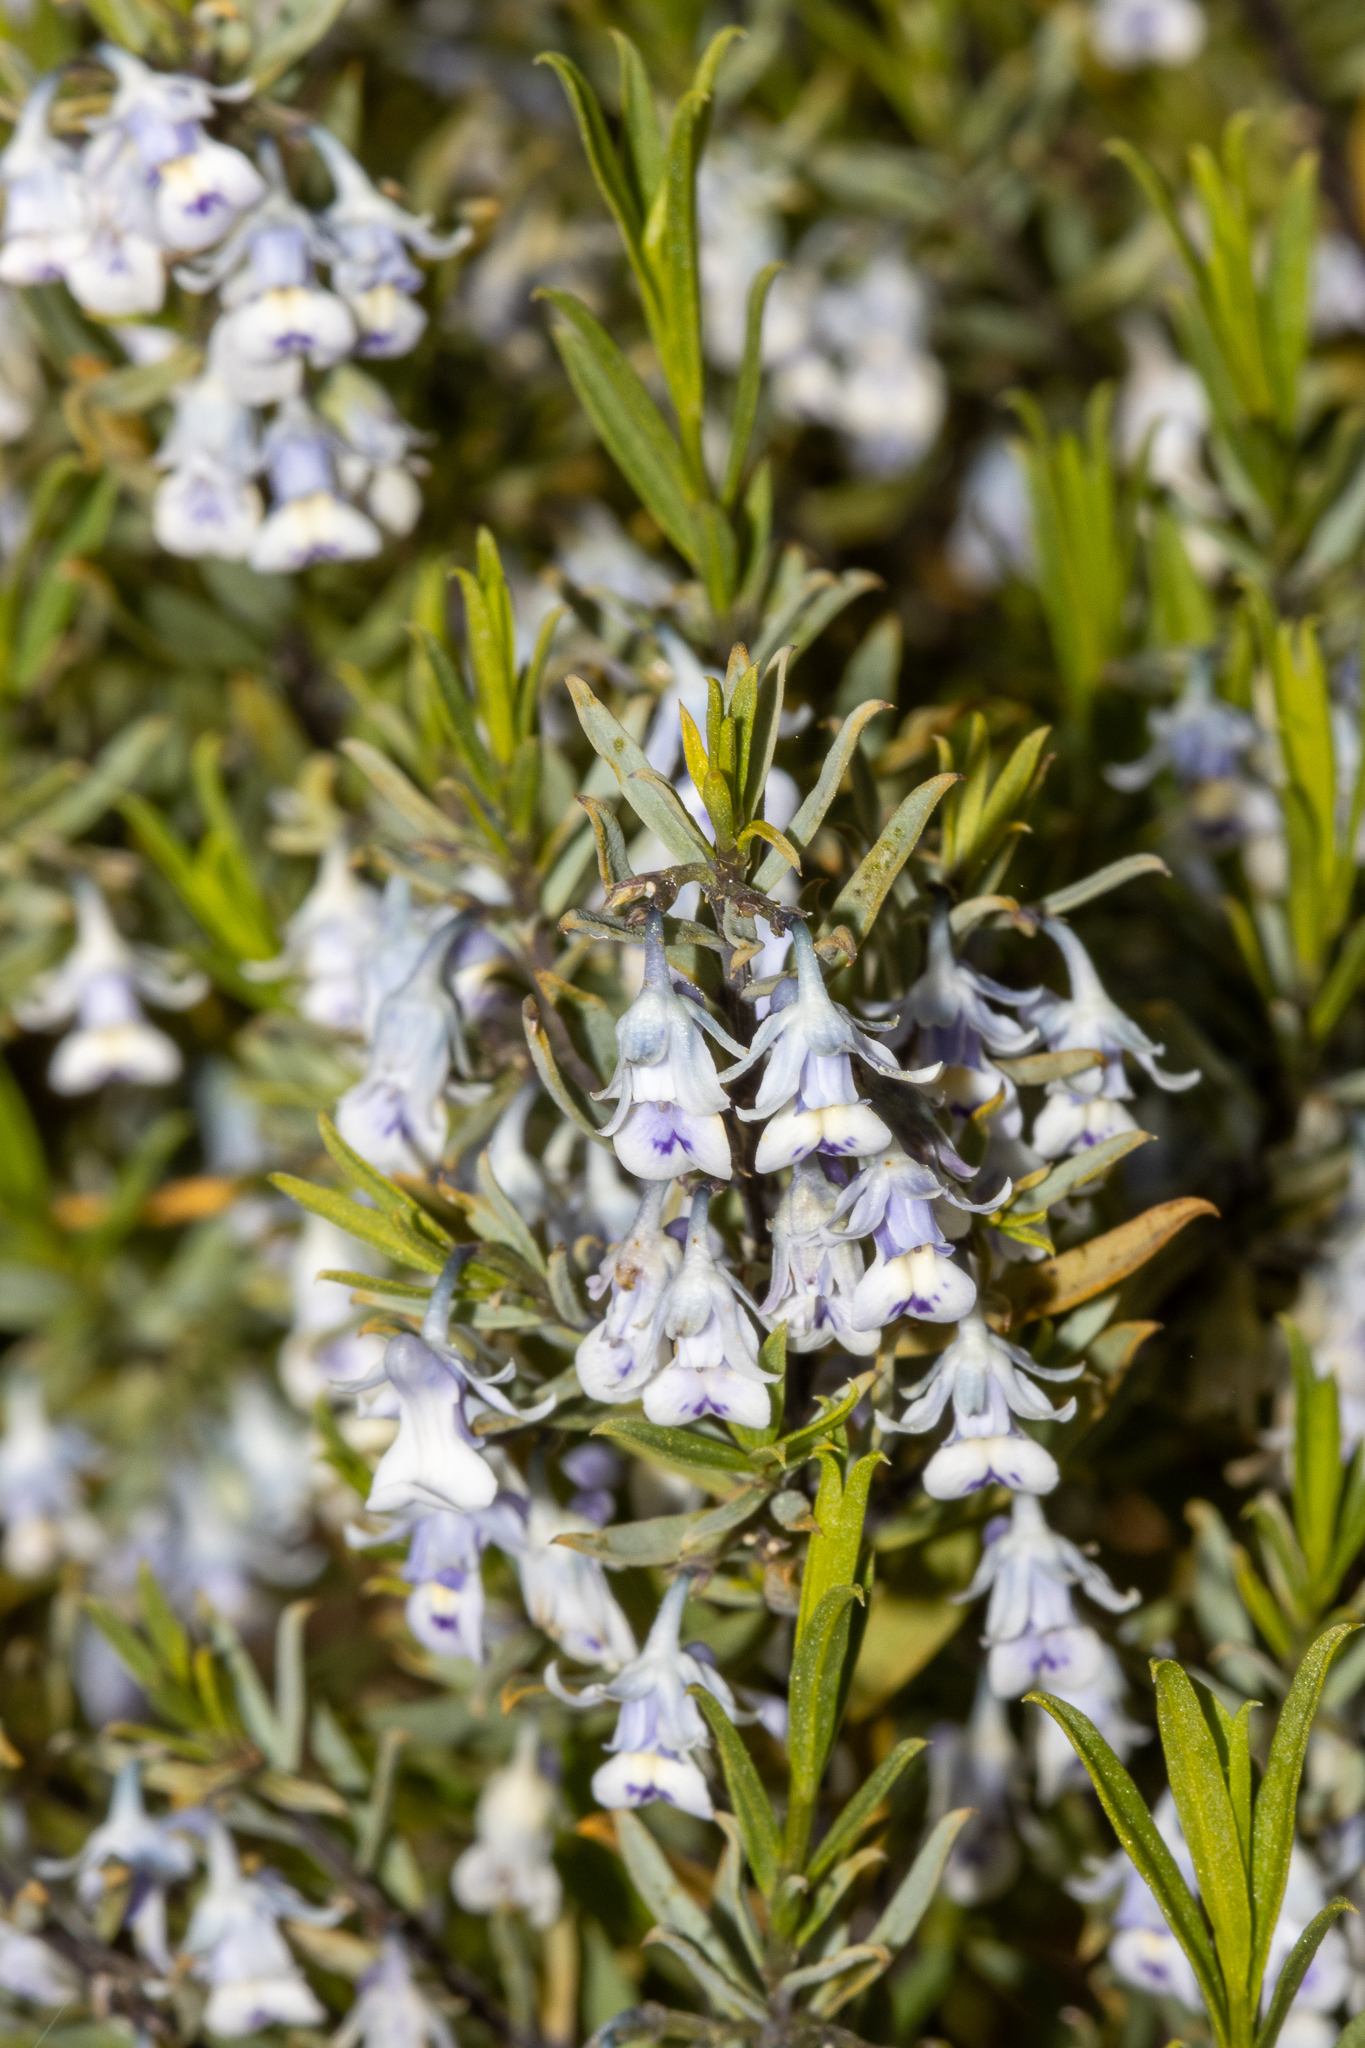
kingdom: Plantae
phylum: Tracheophyta
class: Magnoliopsida
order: Malpighiales
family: Violaceae
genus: Pigea
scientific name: Pigea floribunda
